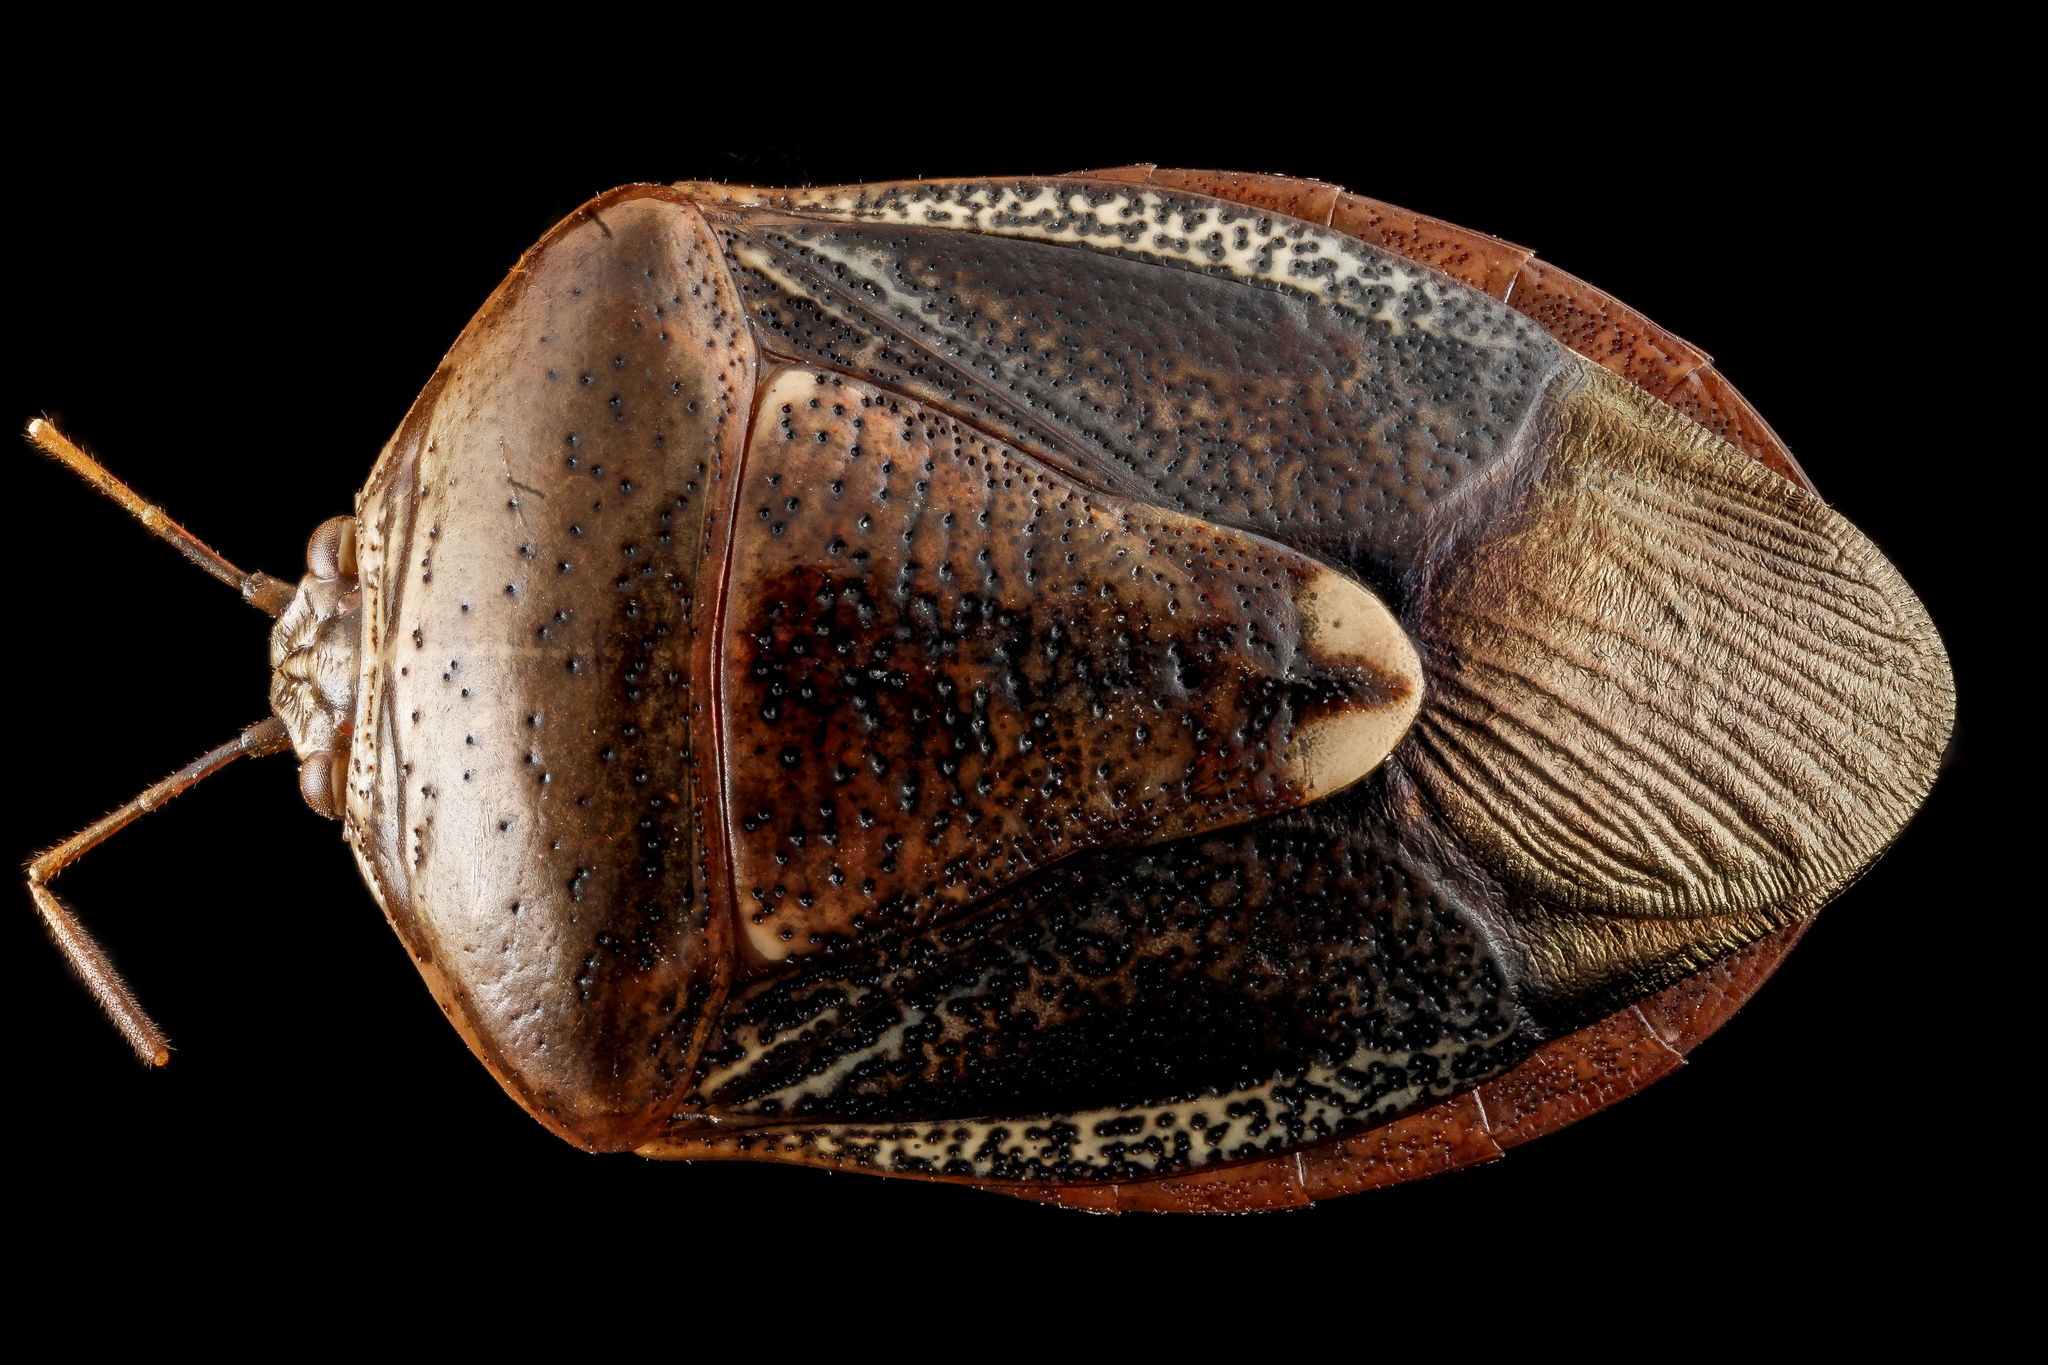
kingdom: Animalia
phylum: Arthropoda
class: Insecta
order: Hemiptera
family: Pentatomidae
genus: Edessa
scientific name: Edessa bifida
